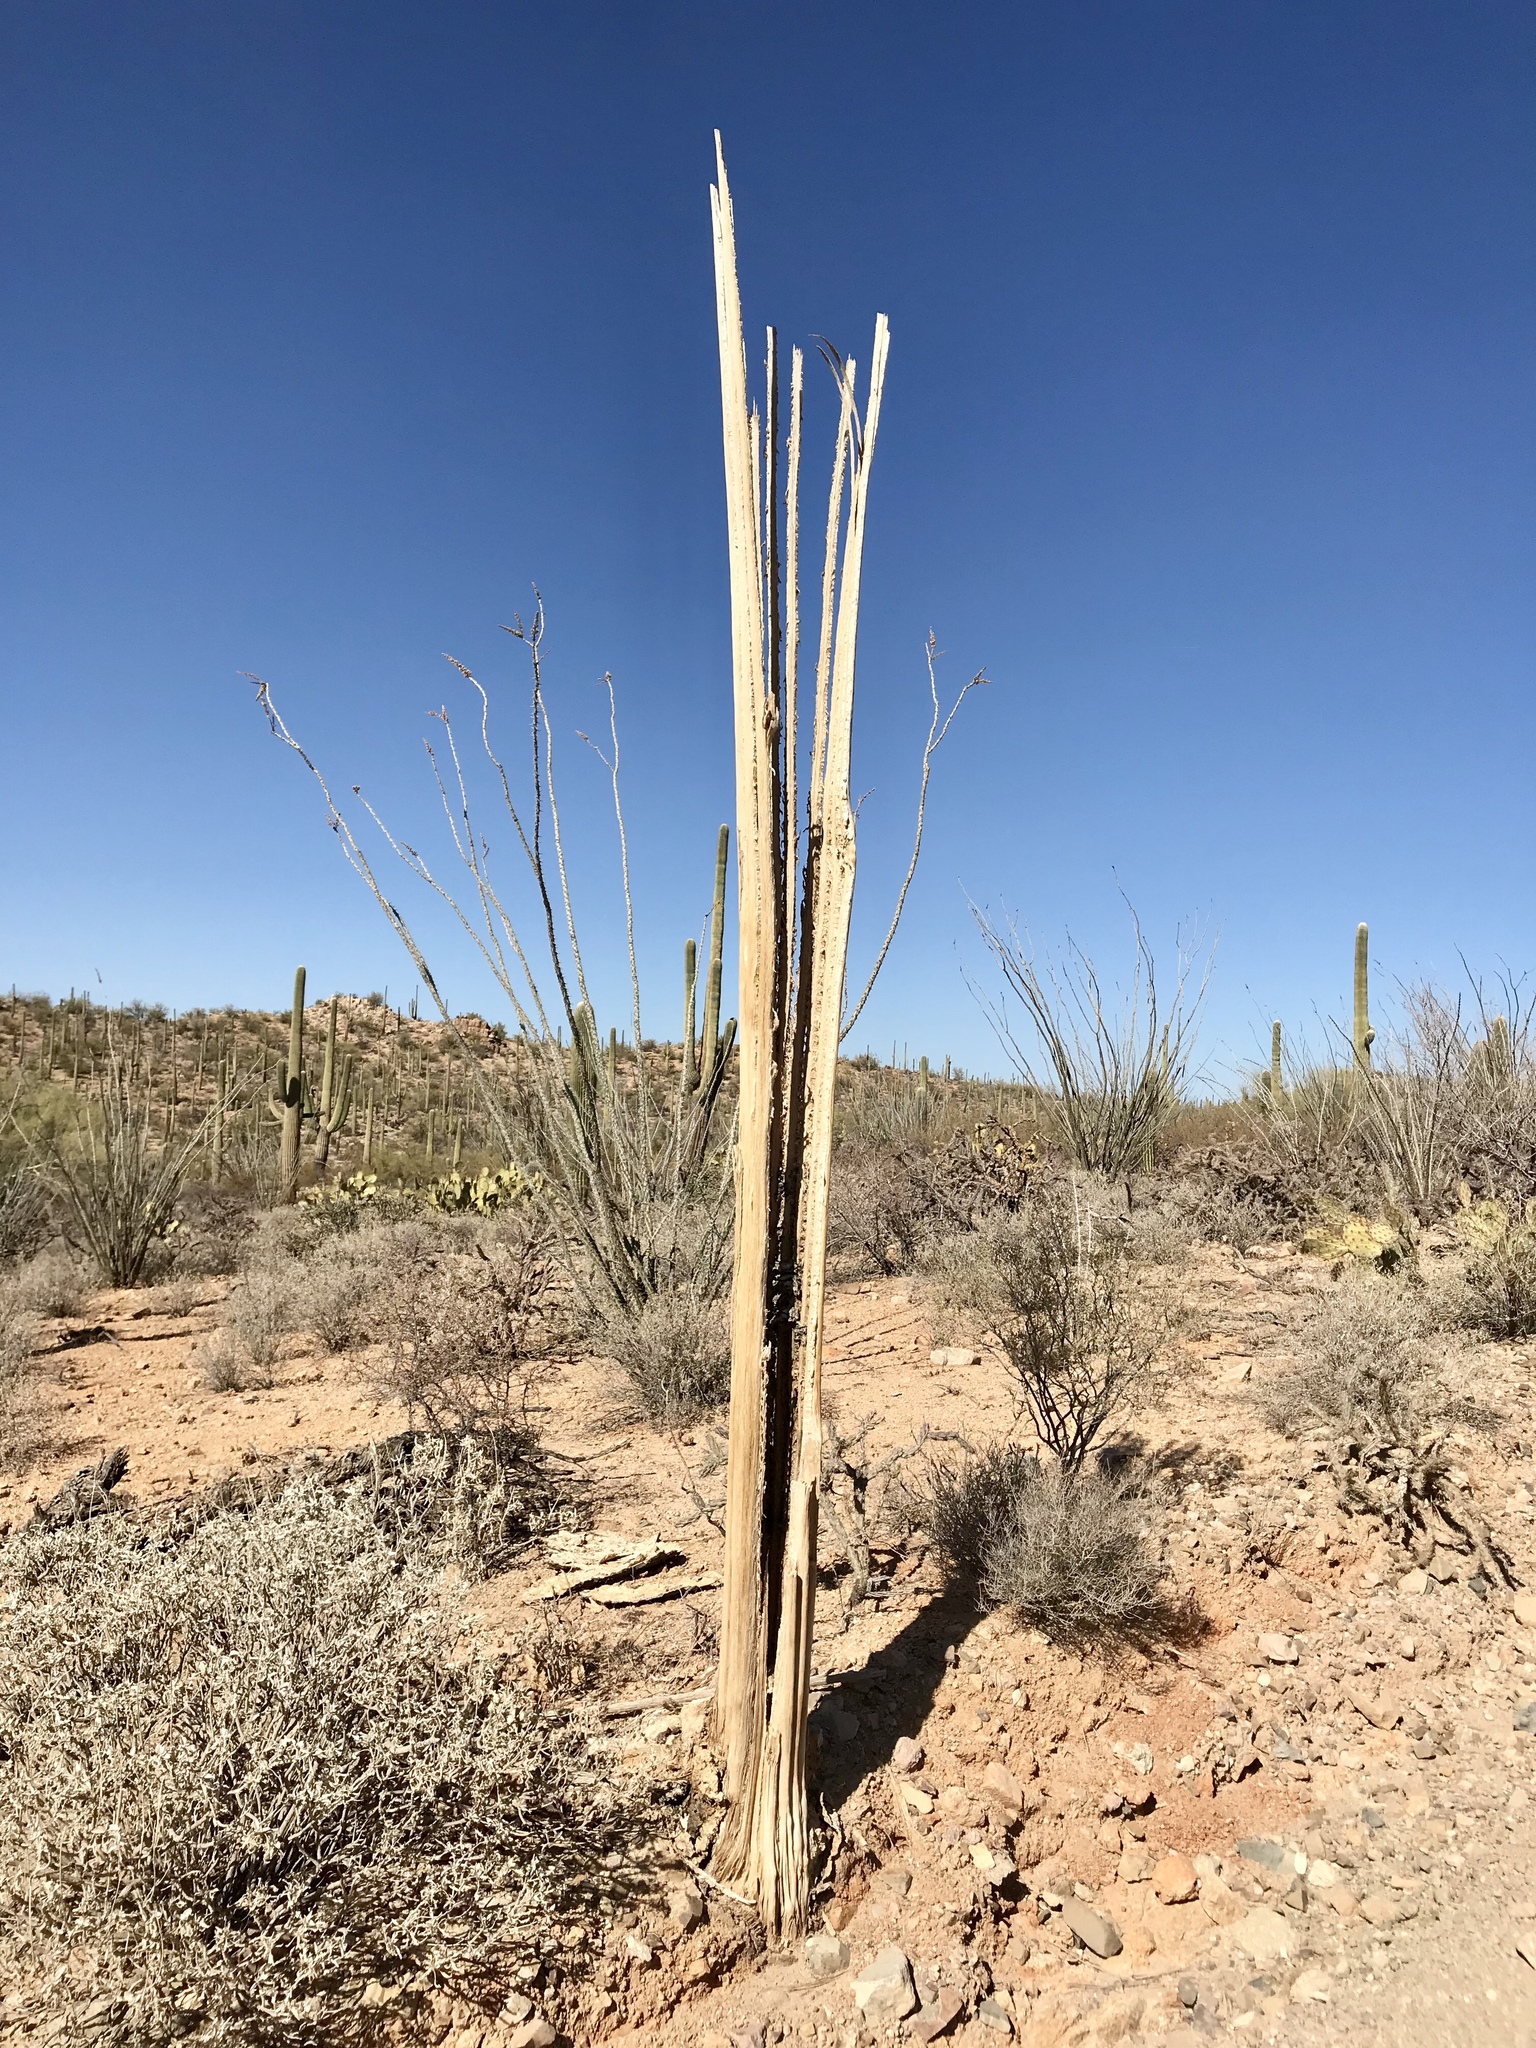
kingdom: Plantae
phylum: Tracheophyta
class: Magnoliopsida
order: Caryophyllales
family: Cactaceae
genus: Carnegiea
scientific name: Carnegiea gigantea
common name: Saguaro
